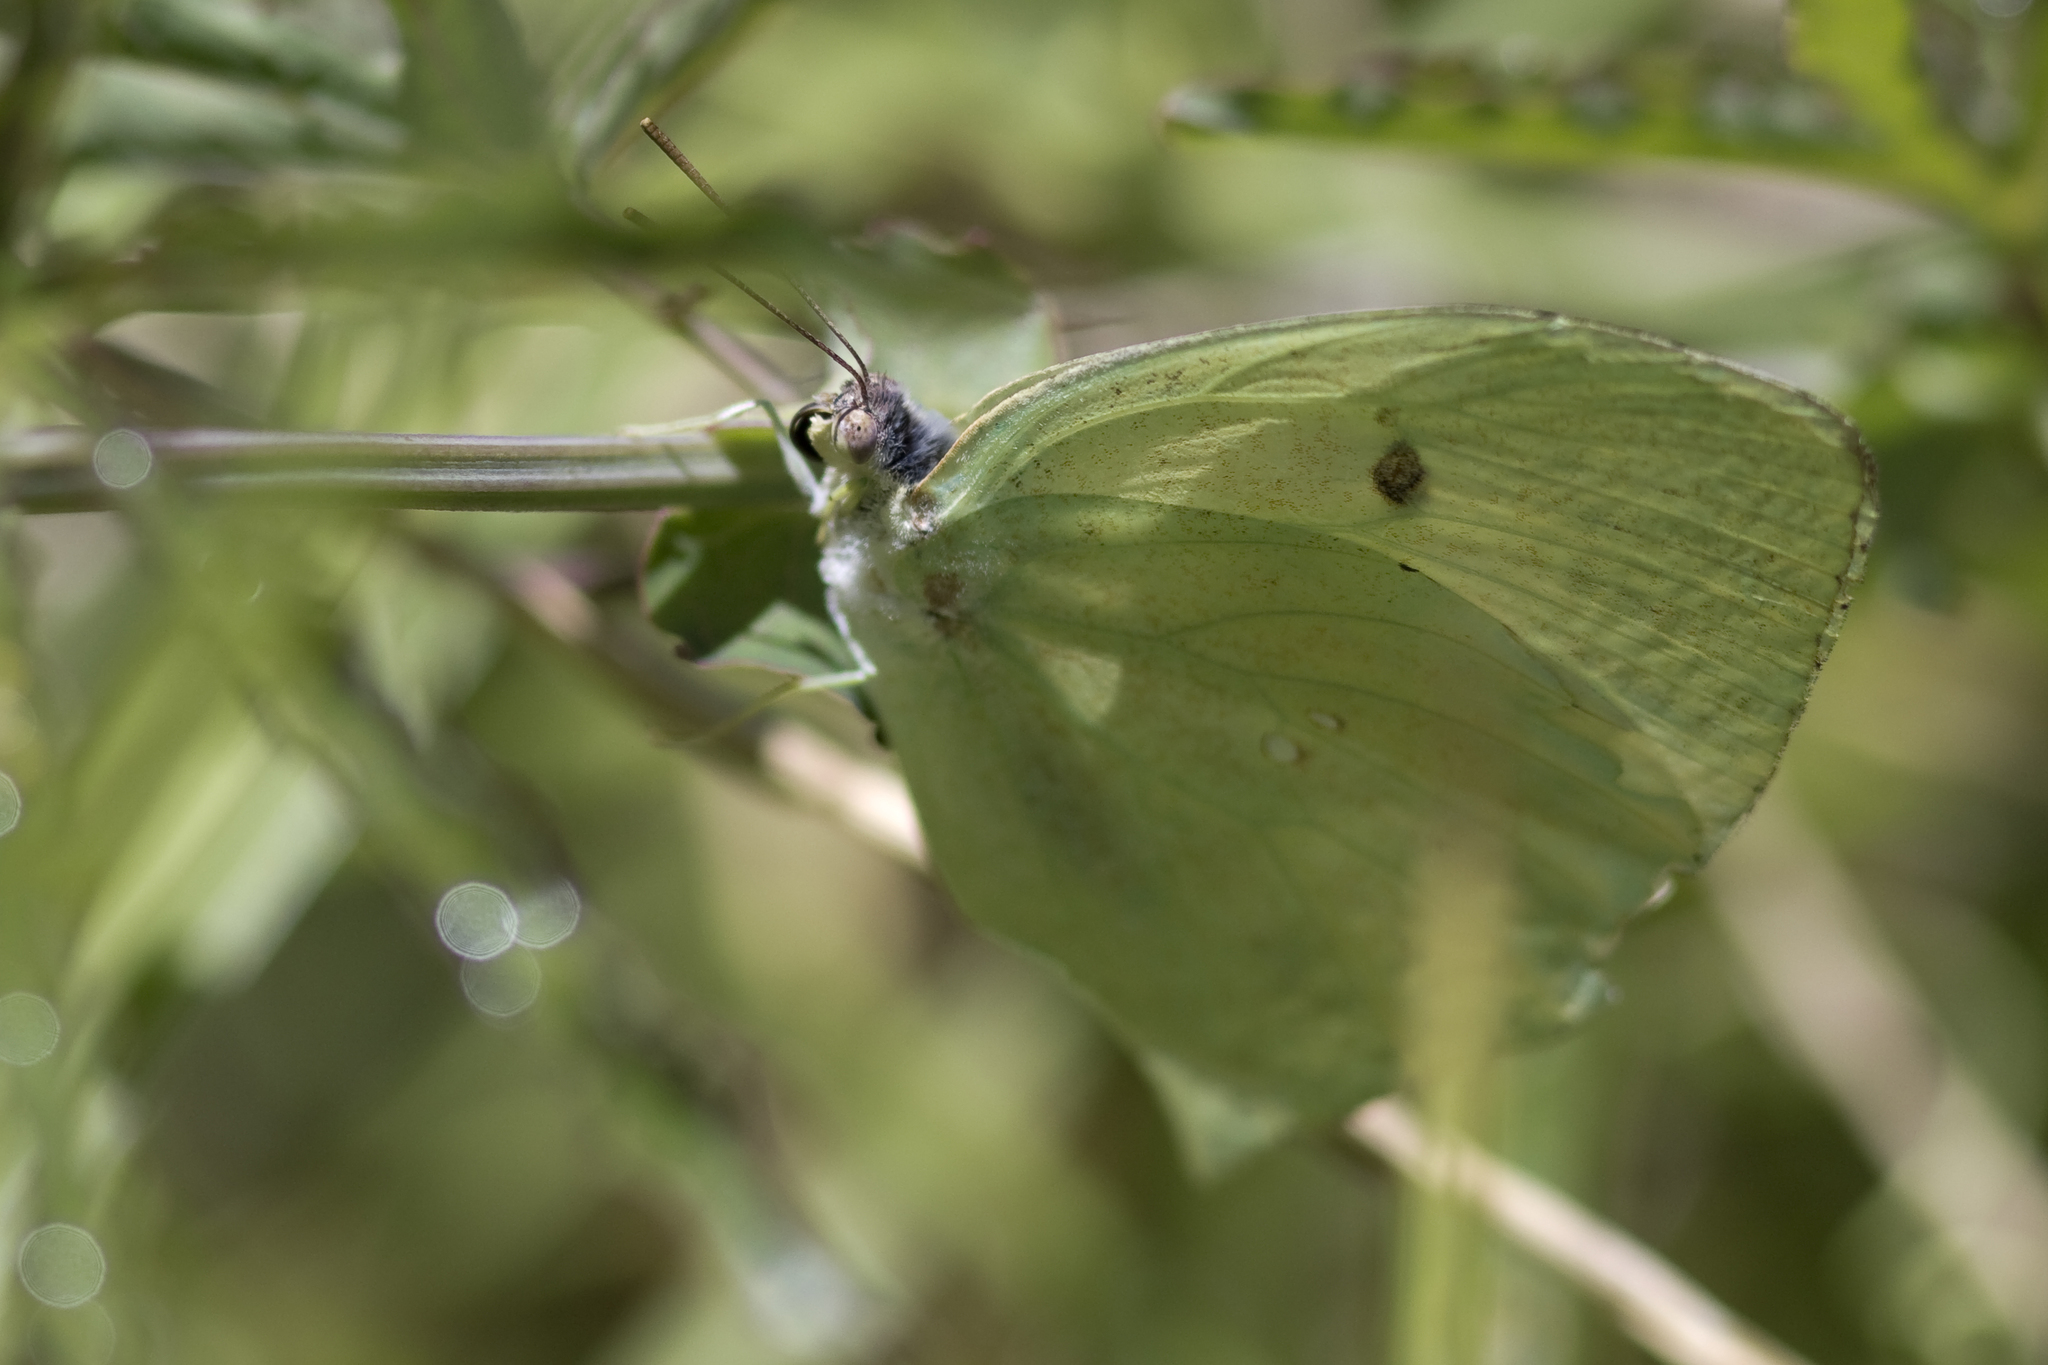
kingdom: Animalia
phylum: Arthropoda
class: Insecta
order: Lepidoptera
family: Pieridae
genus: Phoebis
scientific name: Phoebis neocypris
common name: Tailed sulphur
